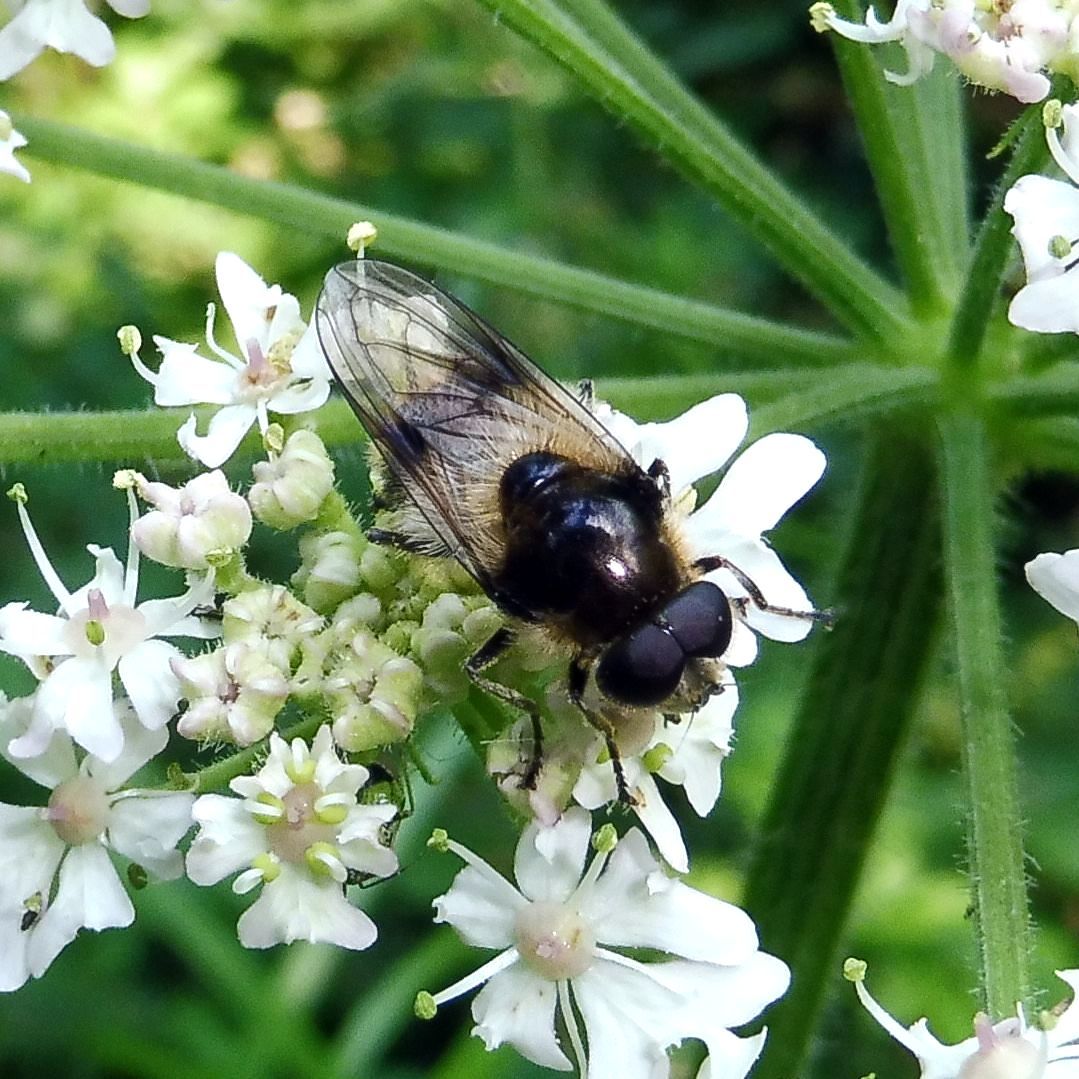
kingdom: Animalia
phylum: Arthropoda
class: Insecta
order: Diptera
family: Syrphidae
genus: Cheilosia
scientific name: Cheilosia illustrata
